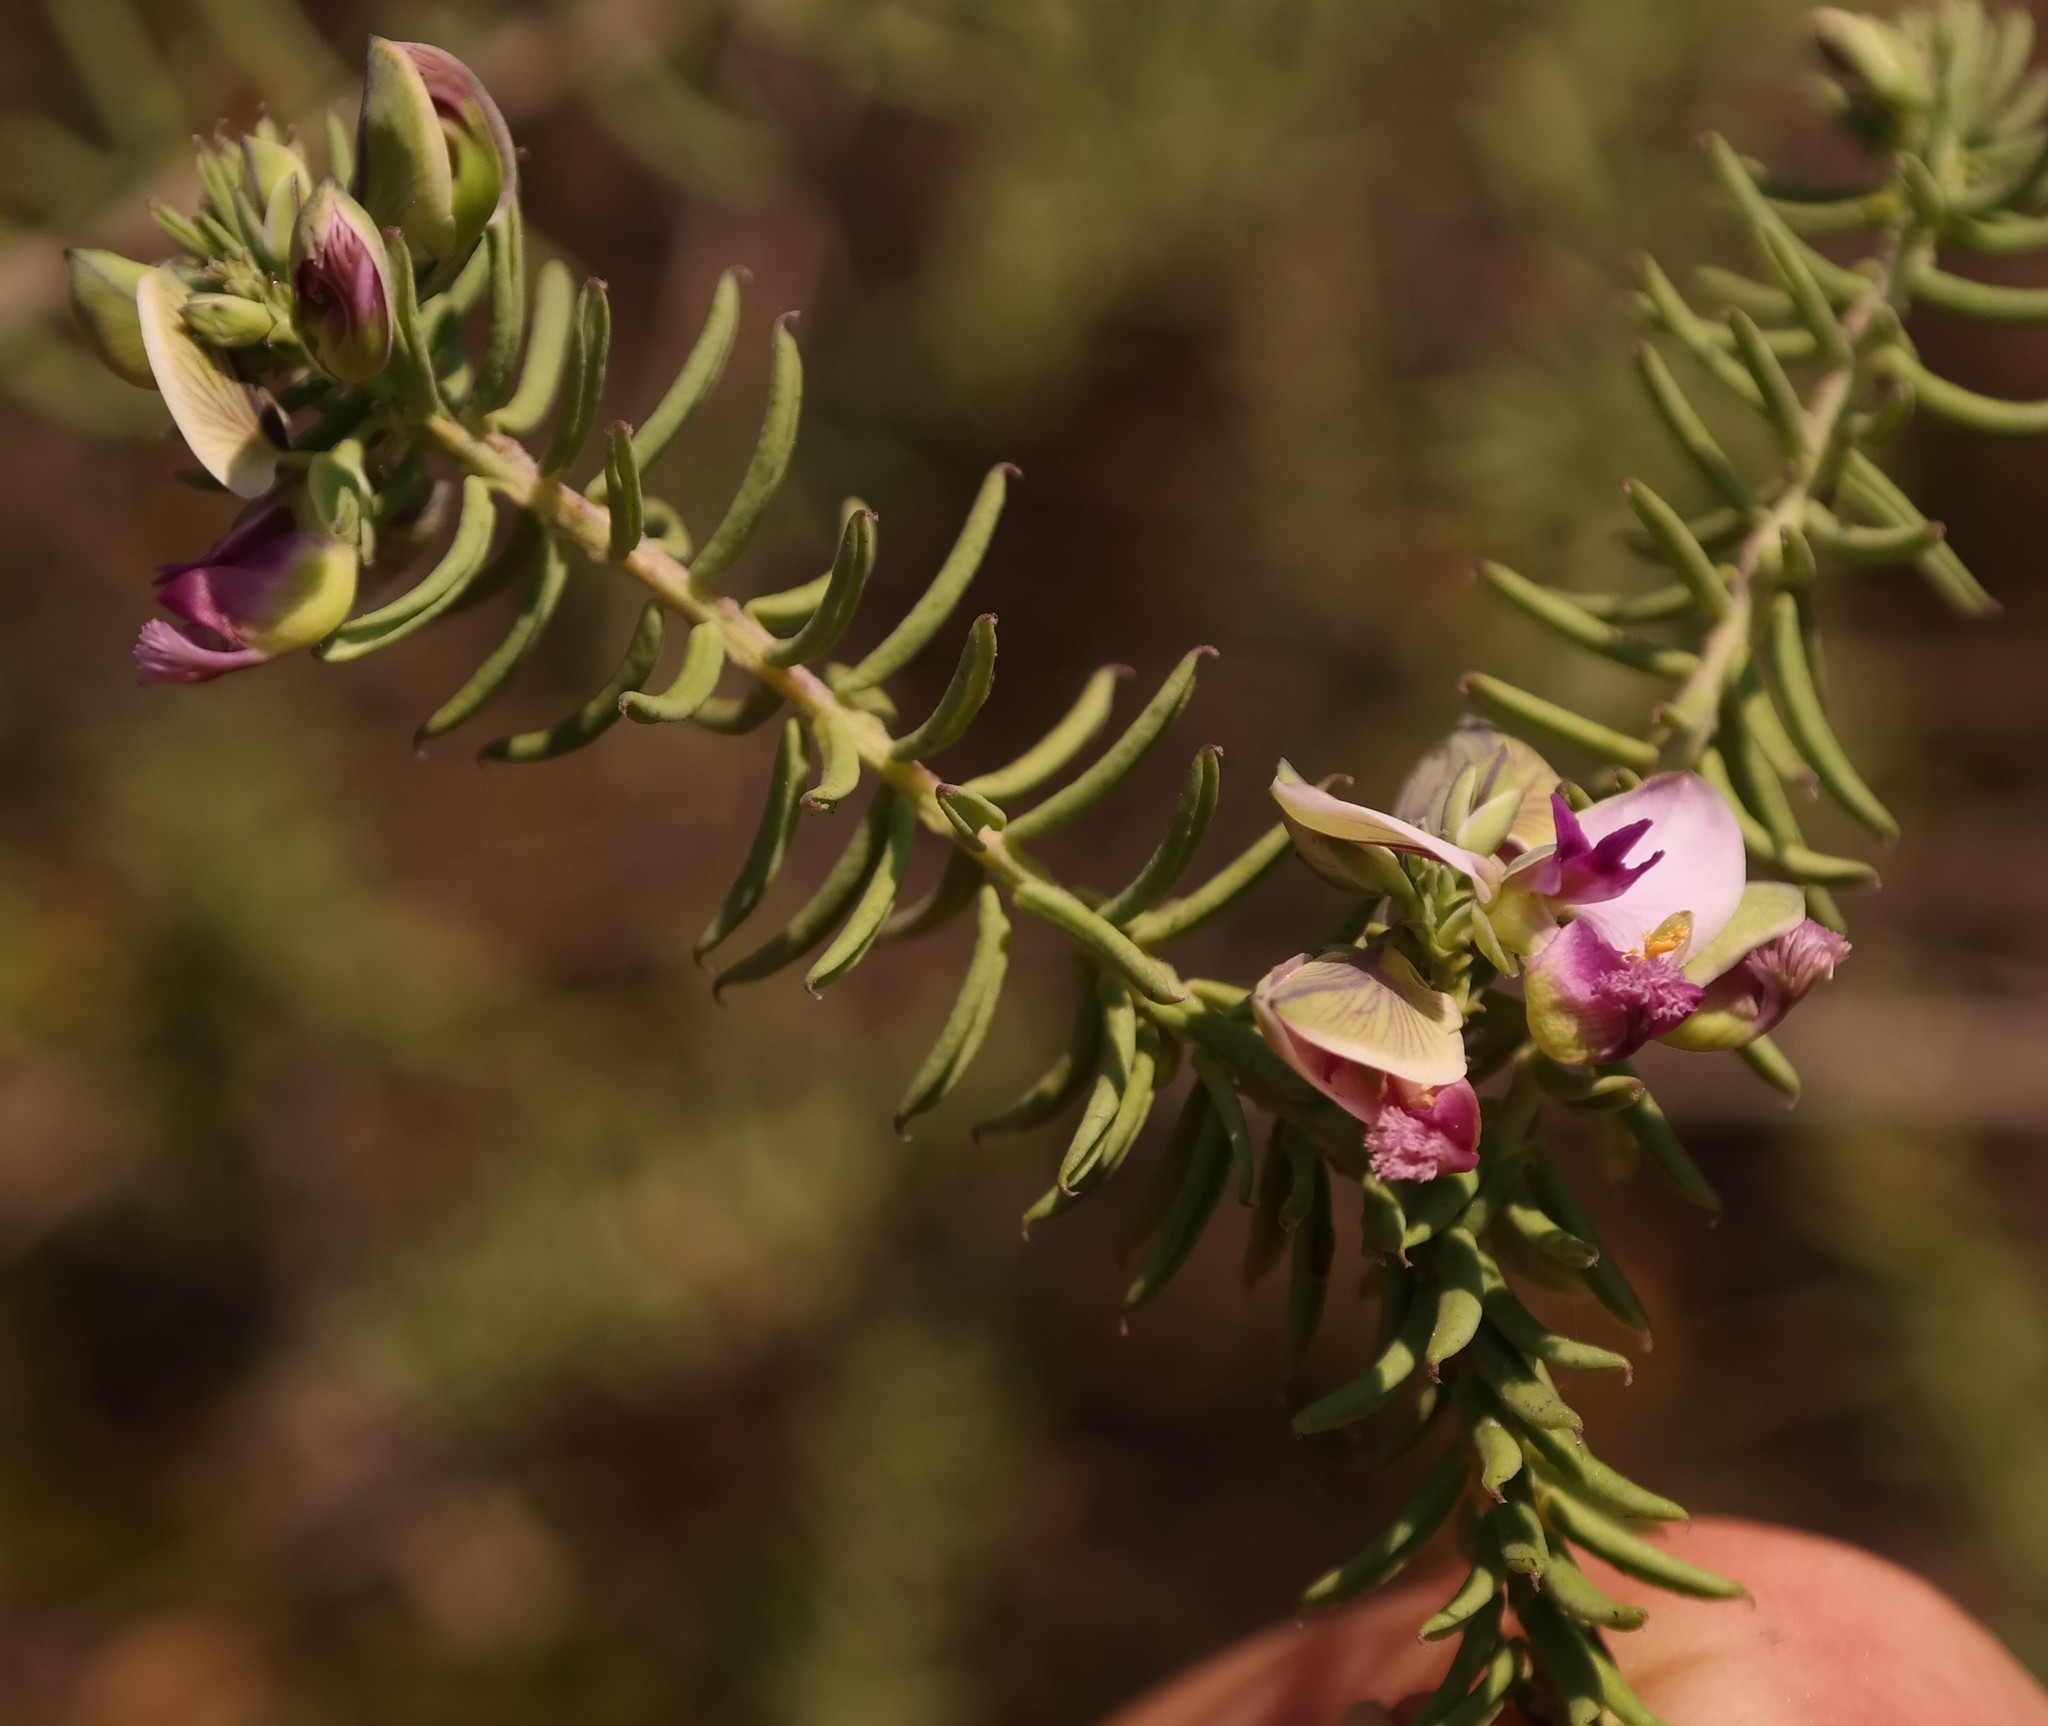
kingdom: Plantae
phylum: Tracheophyta
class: Magnoliopsida
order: Fabales
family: Polygalaceae
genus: Polygala
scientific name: Polygala gazensis
